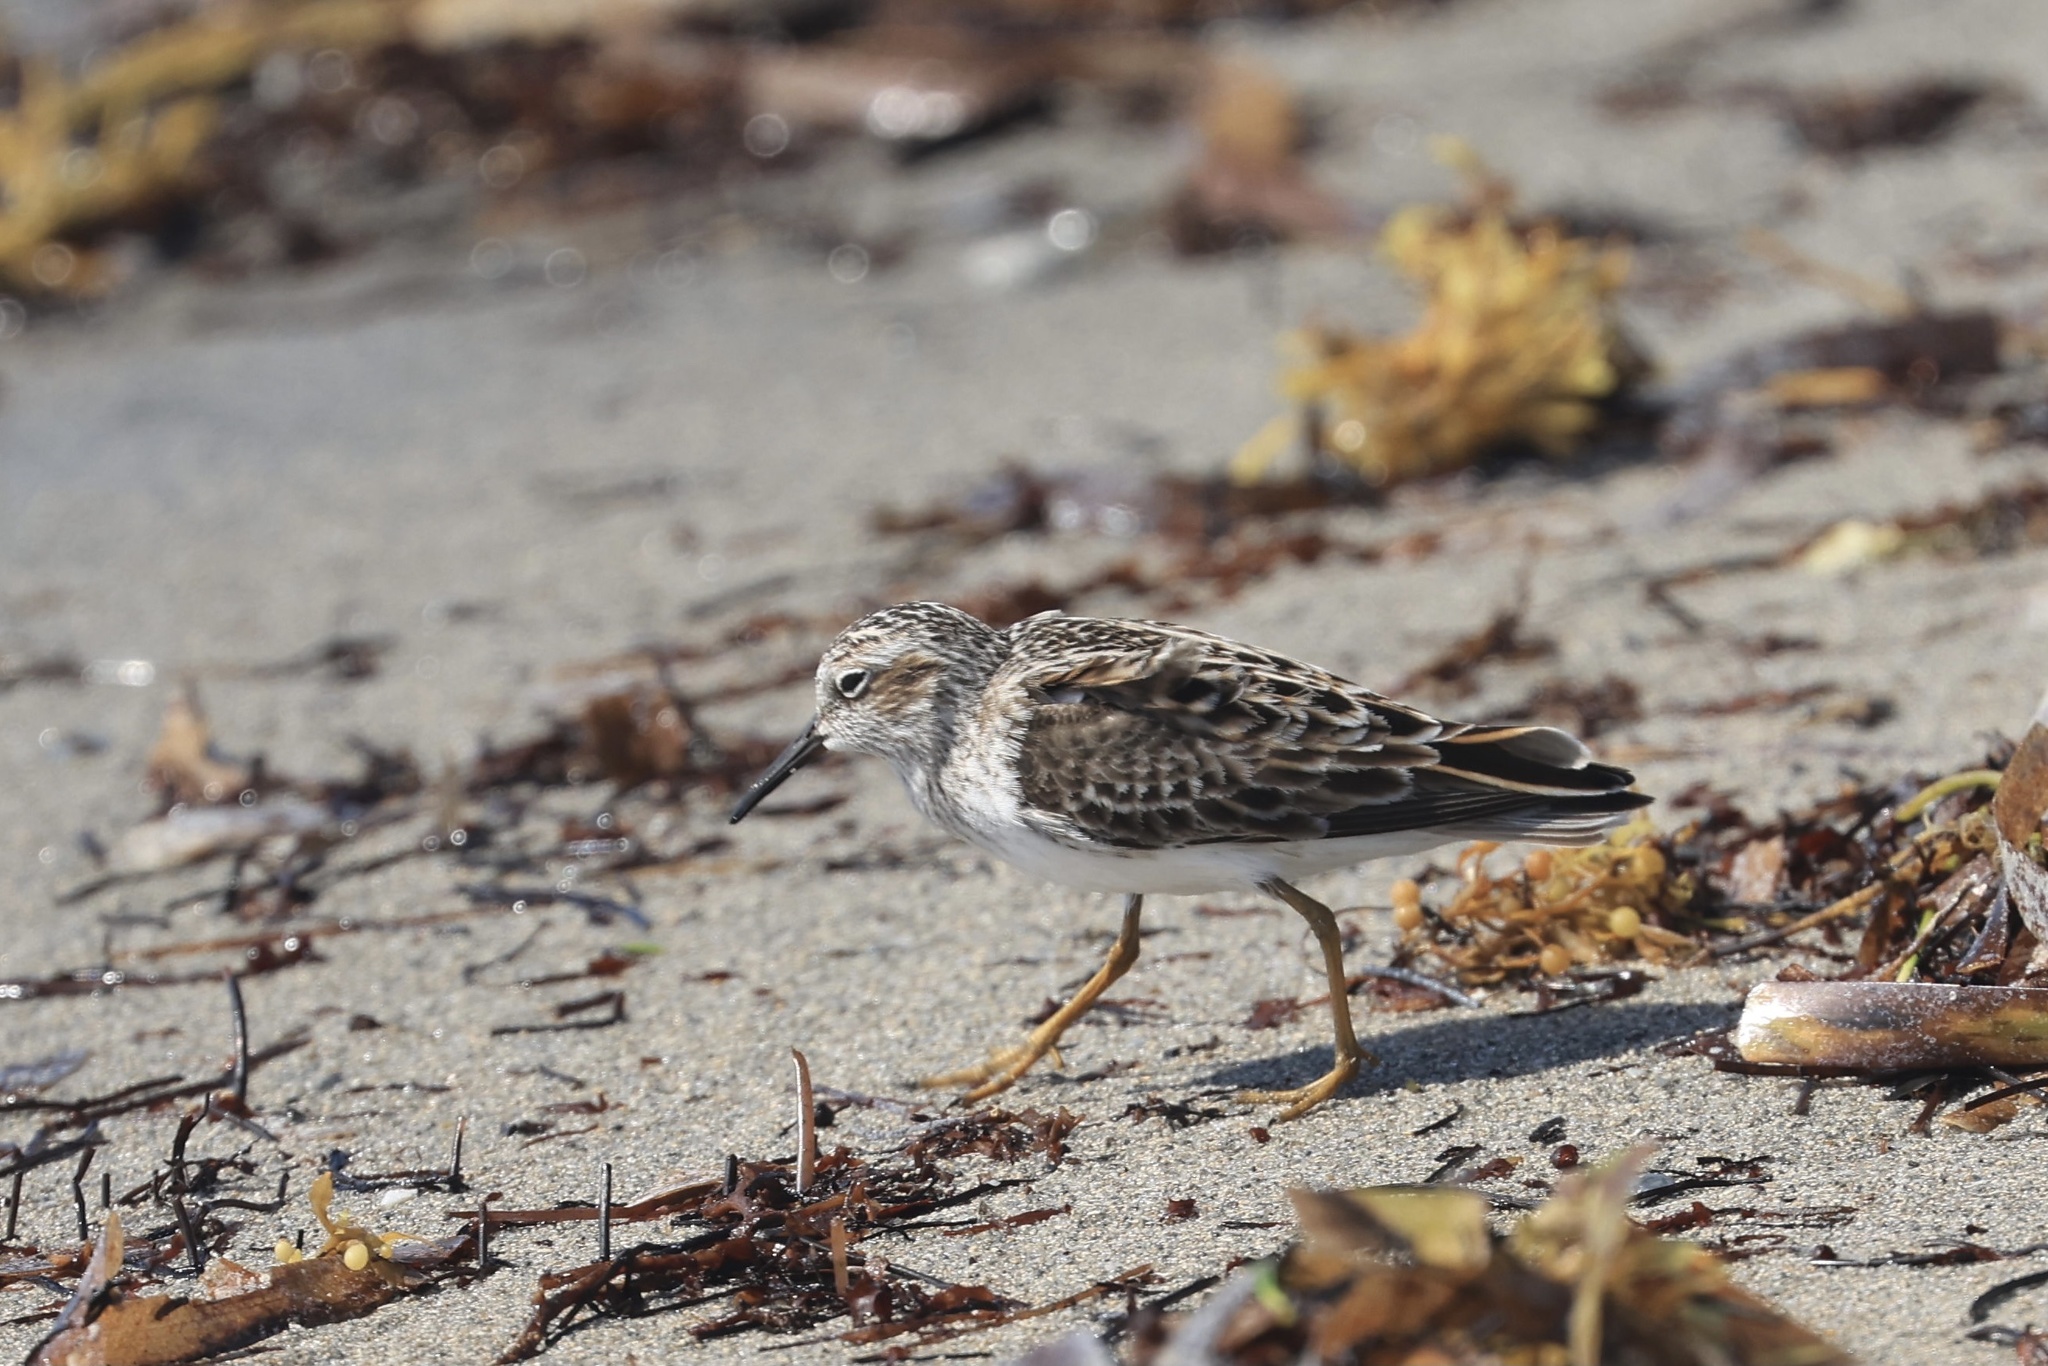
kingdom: Animalia
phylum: Chordata
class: Aves
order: Charadriiformes
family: Scolopacidae
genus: Calidris
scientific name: Calidris minutilla
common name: Least sandpiper
